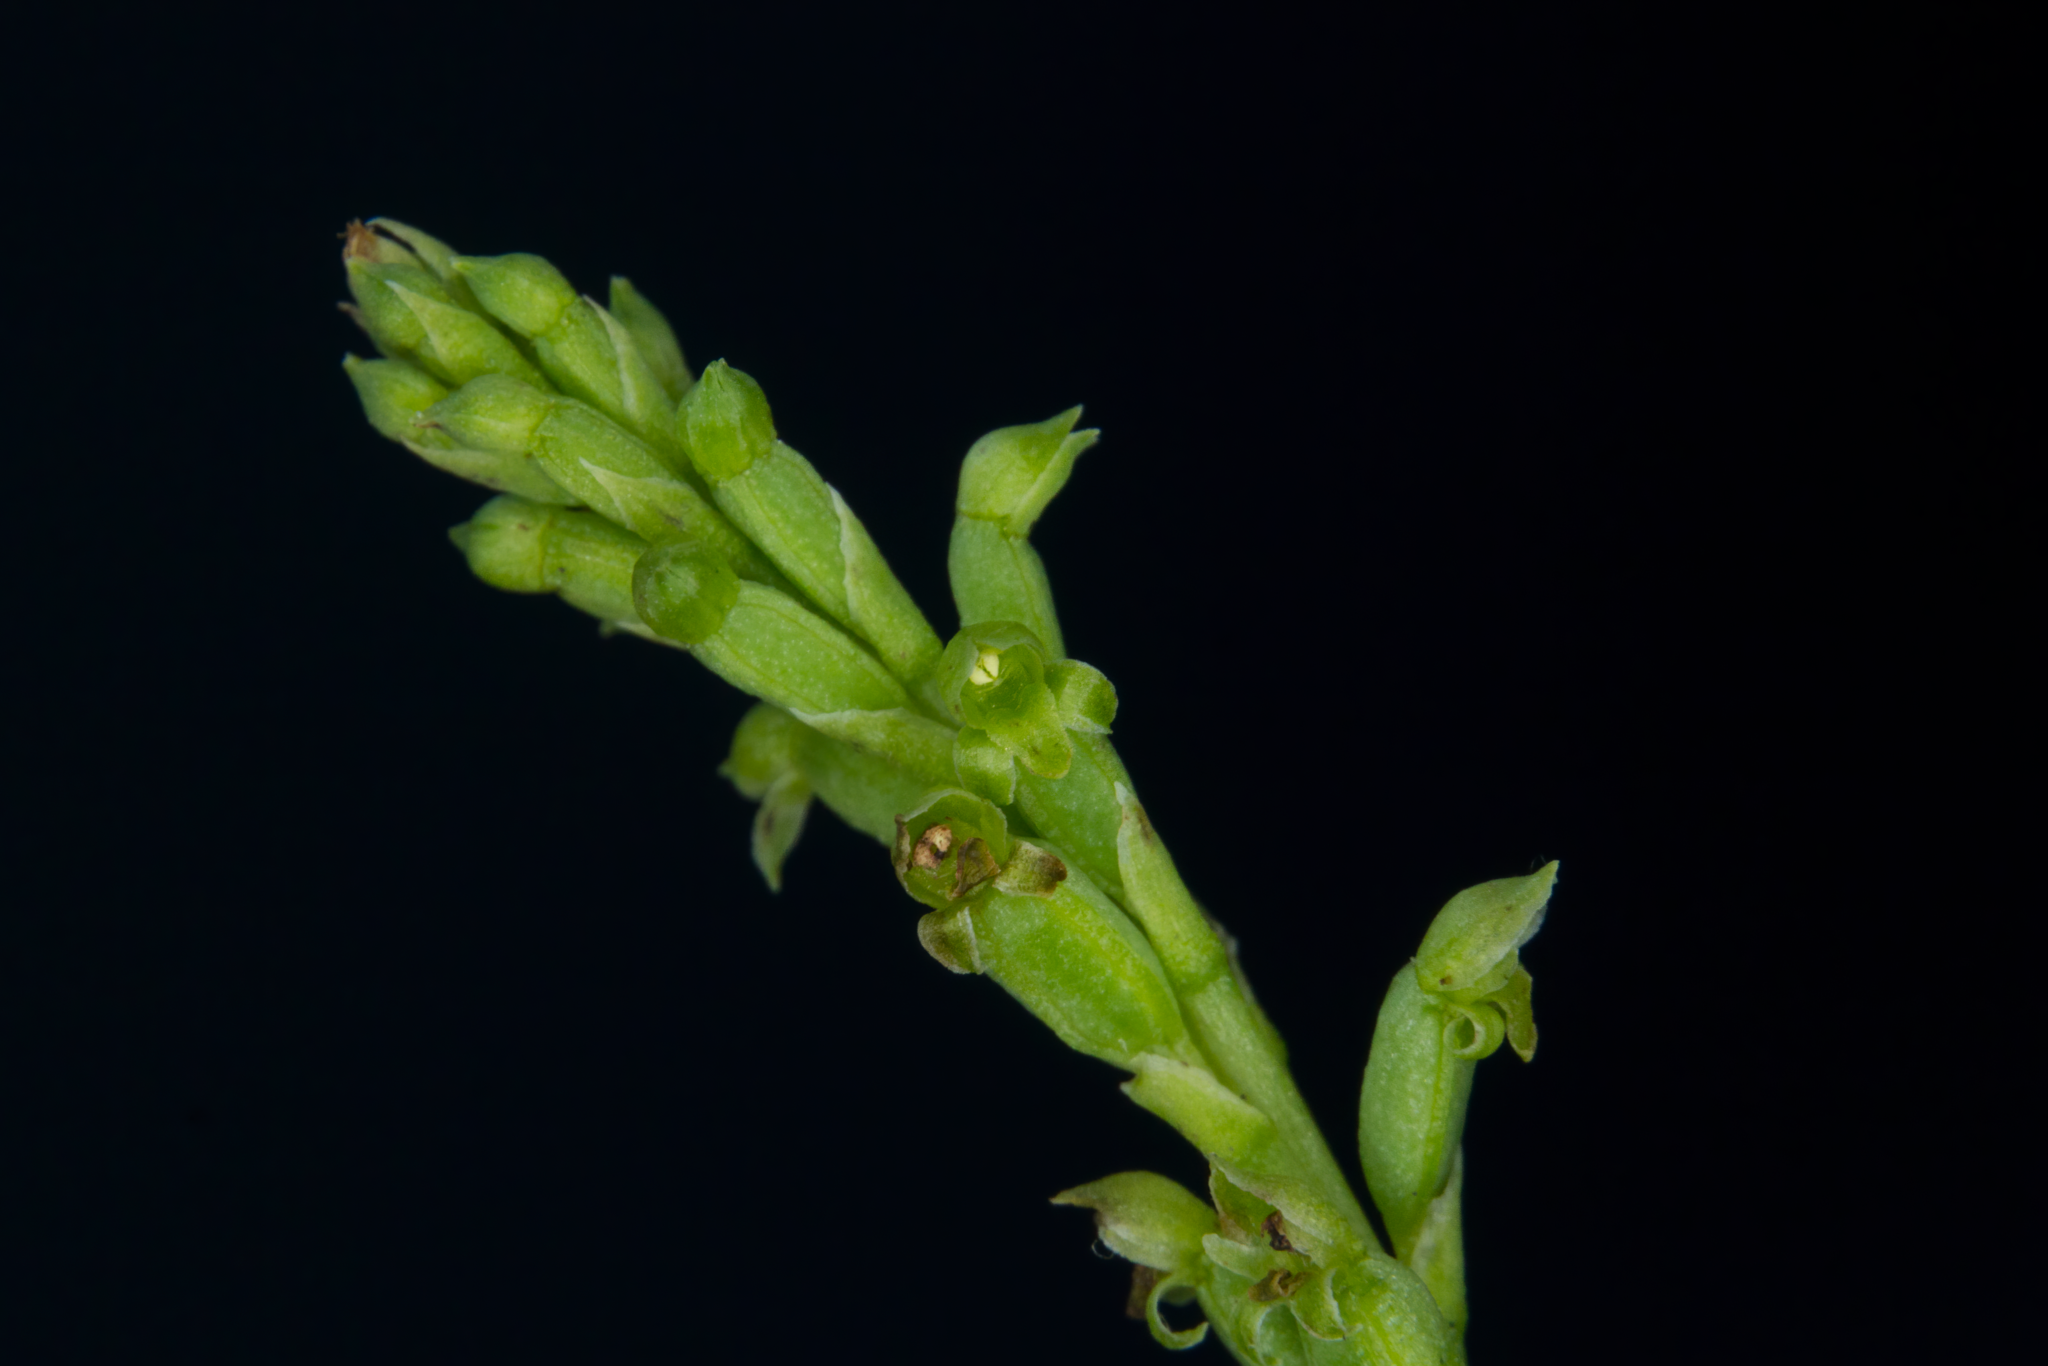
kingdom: Plantae
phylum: Tracheophyta
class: Liliopsida
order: Asparagales
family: Orchidaceae
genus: Microtis
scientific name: Microtis parviflora
